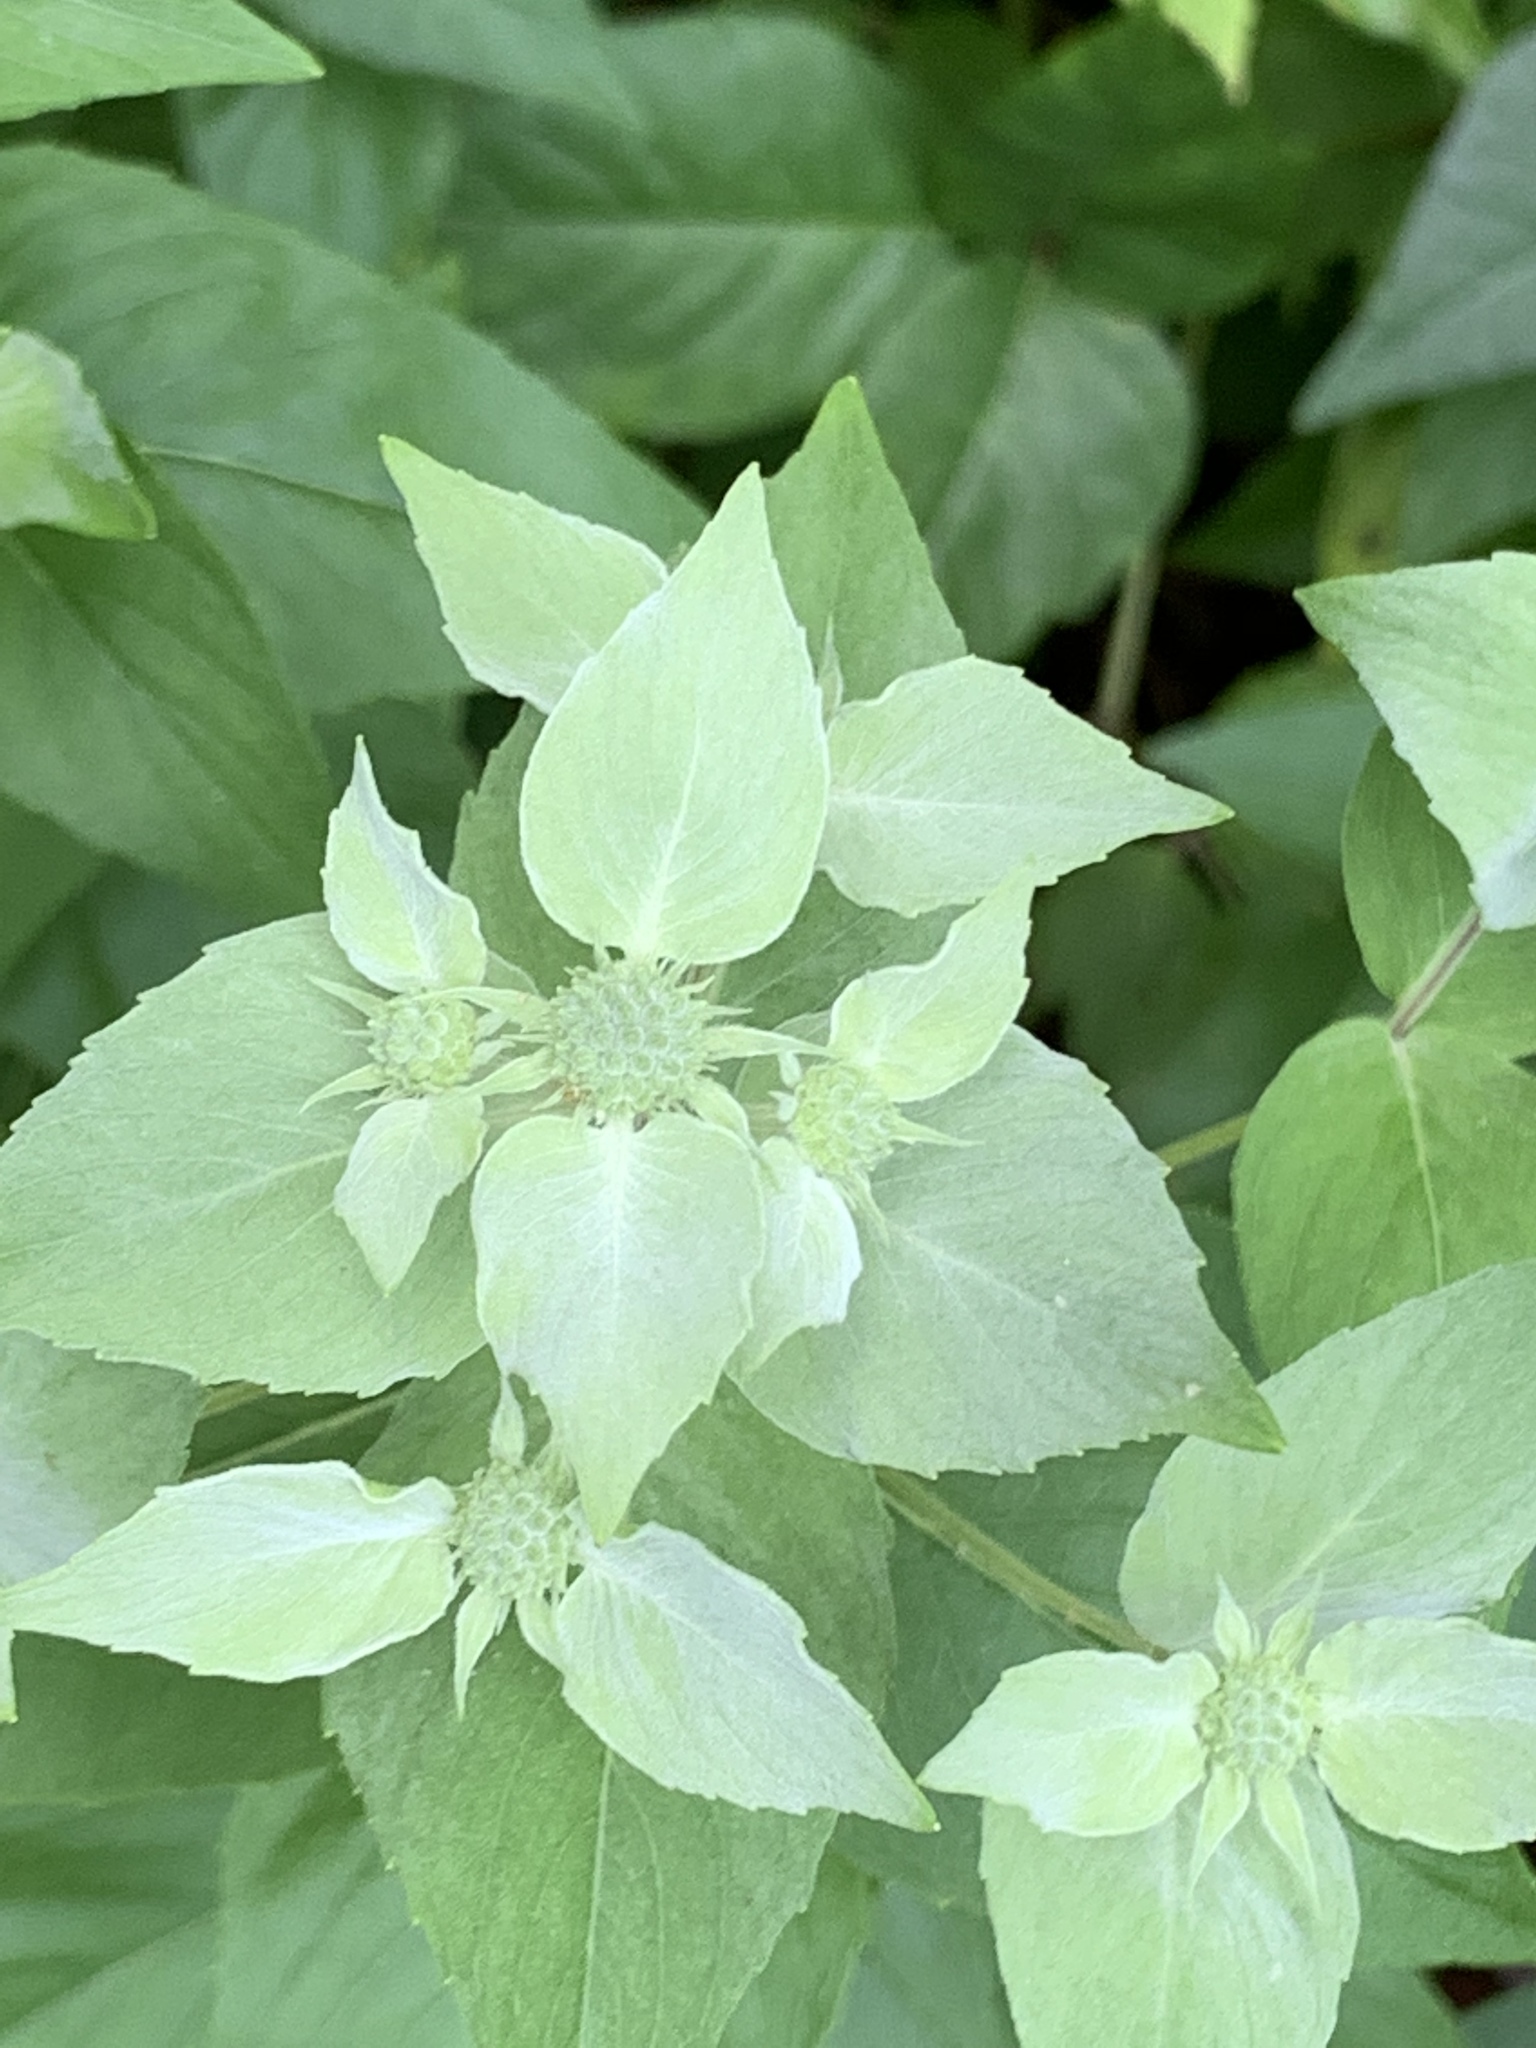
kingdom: Plantae
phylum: Tracheophyta
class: Magnoliopsida
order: Lamiales
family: Lamiaceae
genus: Pycnanthemum
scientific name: Pycnanthemum muticum
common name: Blunt mountain-mint
